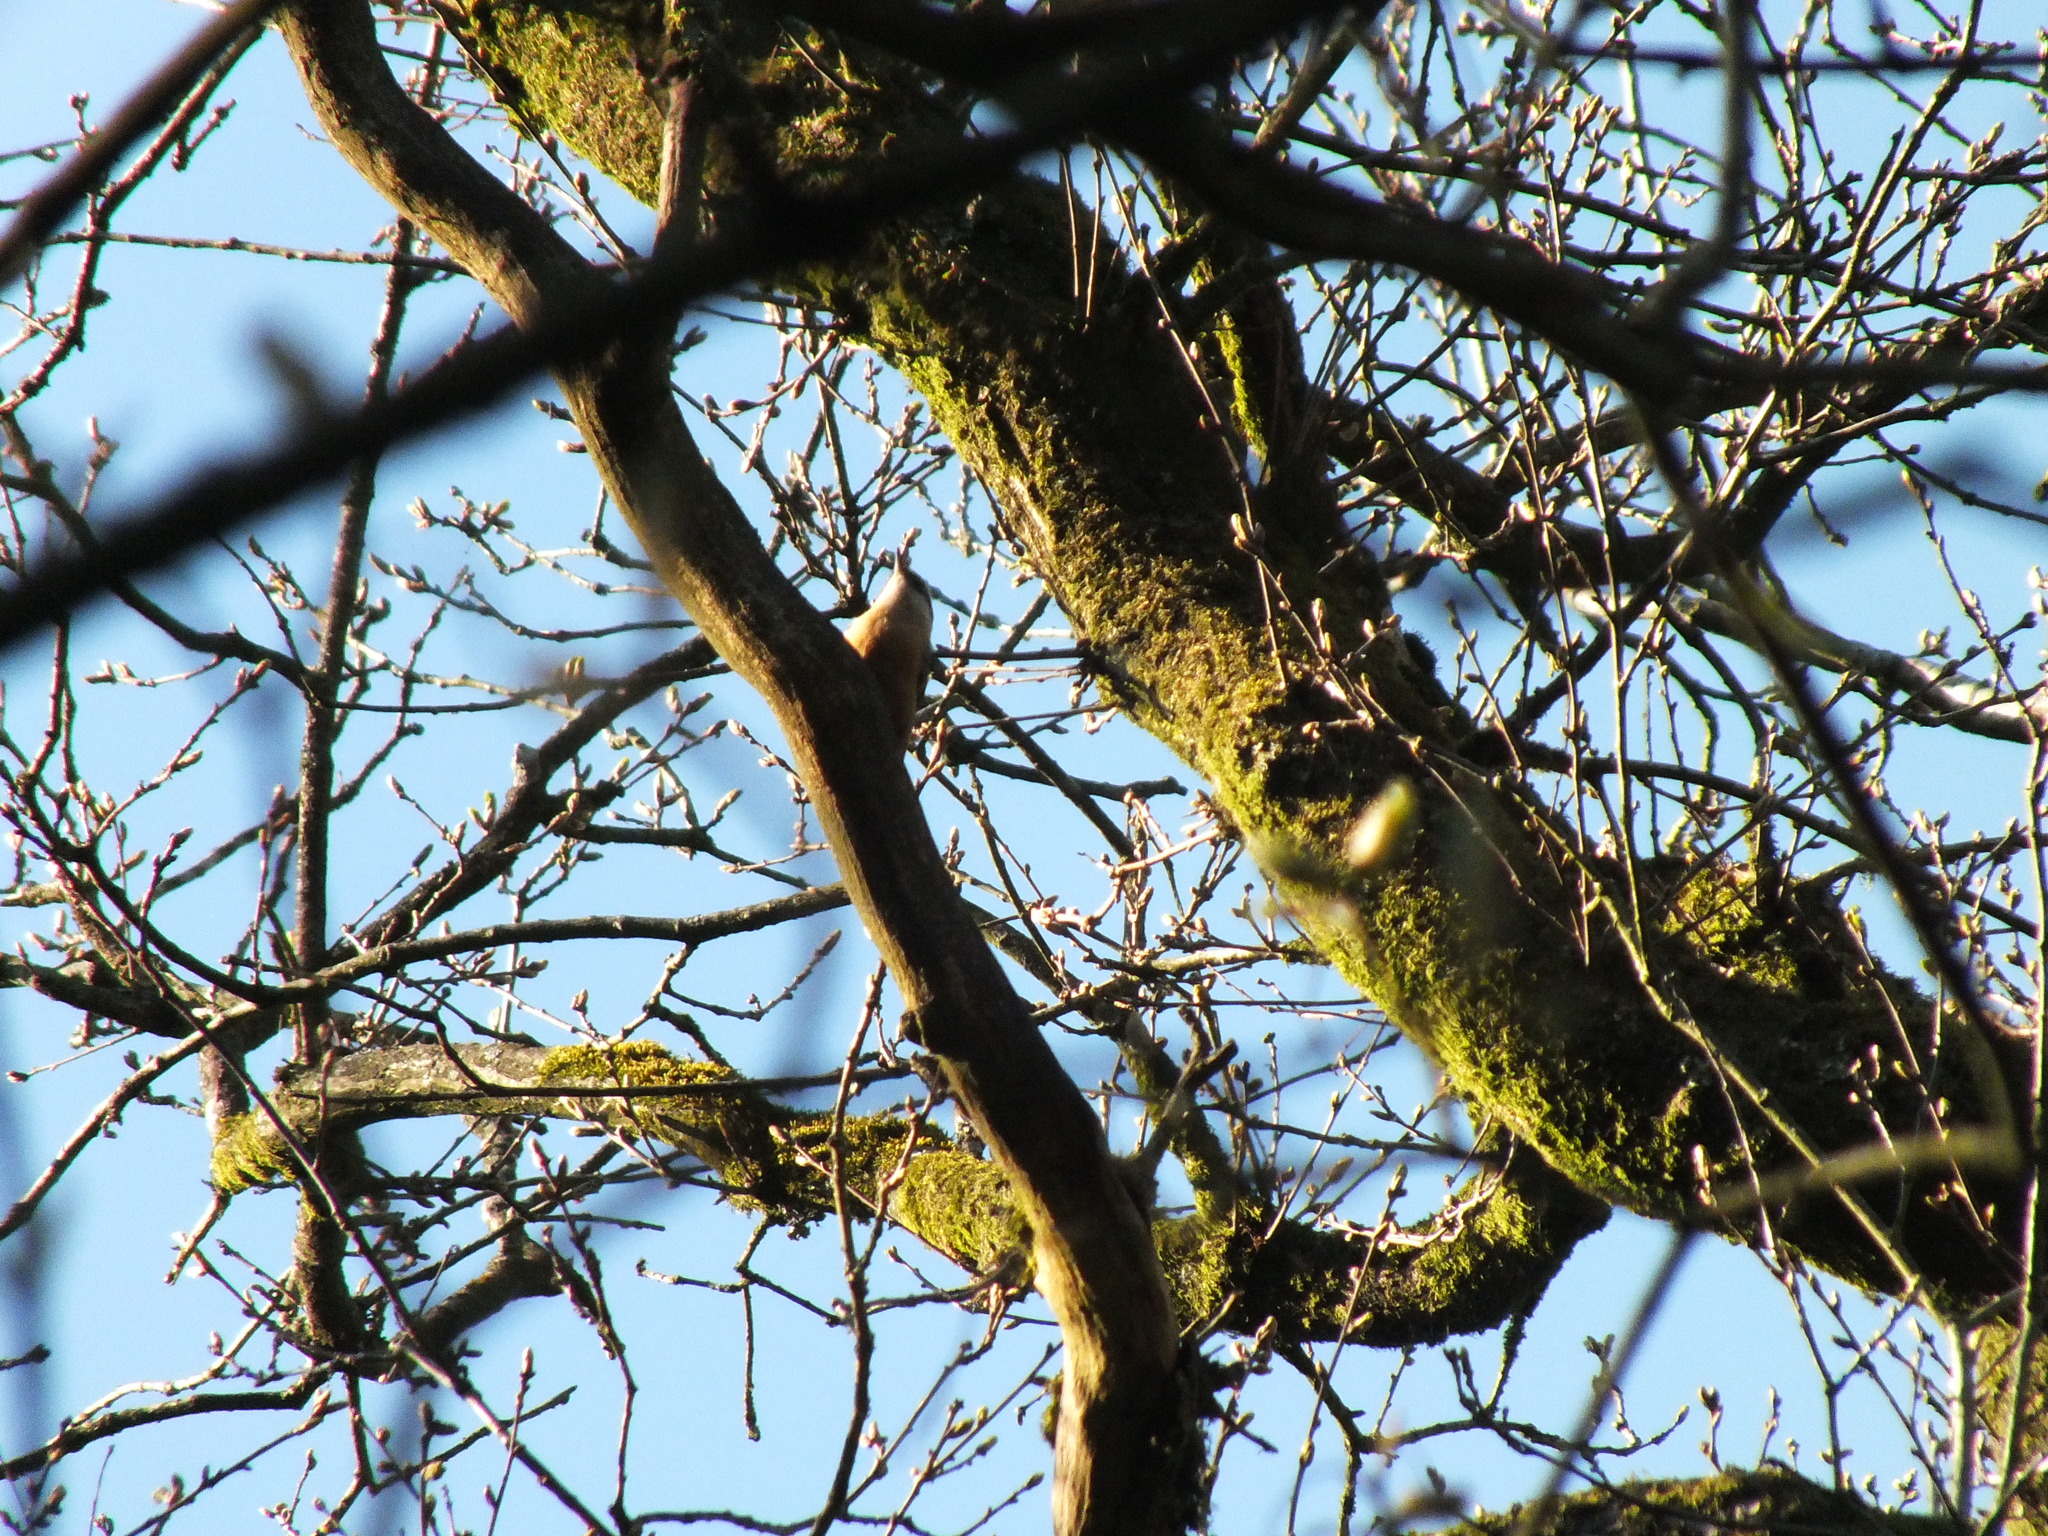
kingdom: Animalia
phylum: Chordata
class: Aves
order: Passeriformes
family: Sittidae
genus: Sitta
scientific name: Sitta europaea
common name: Eurasian nuthatch
